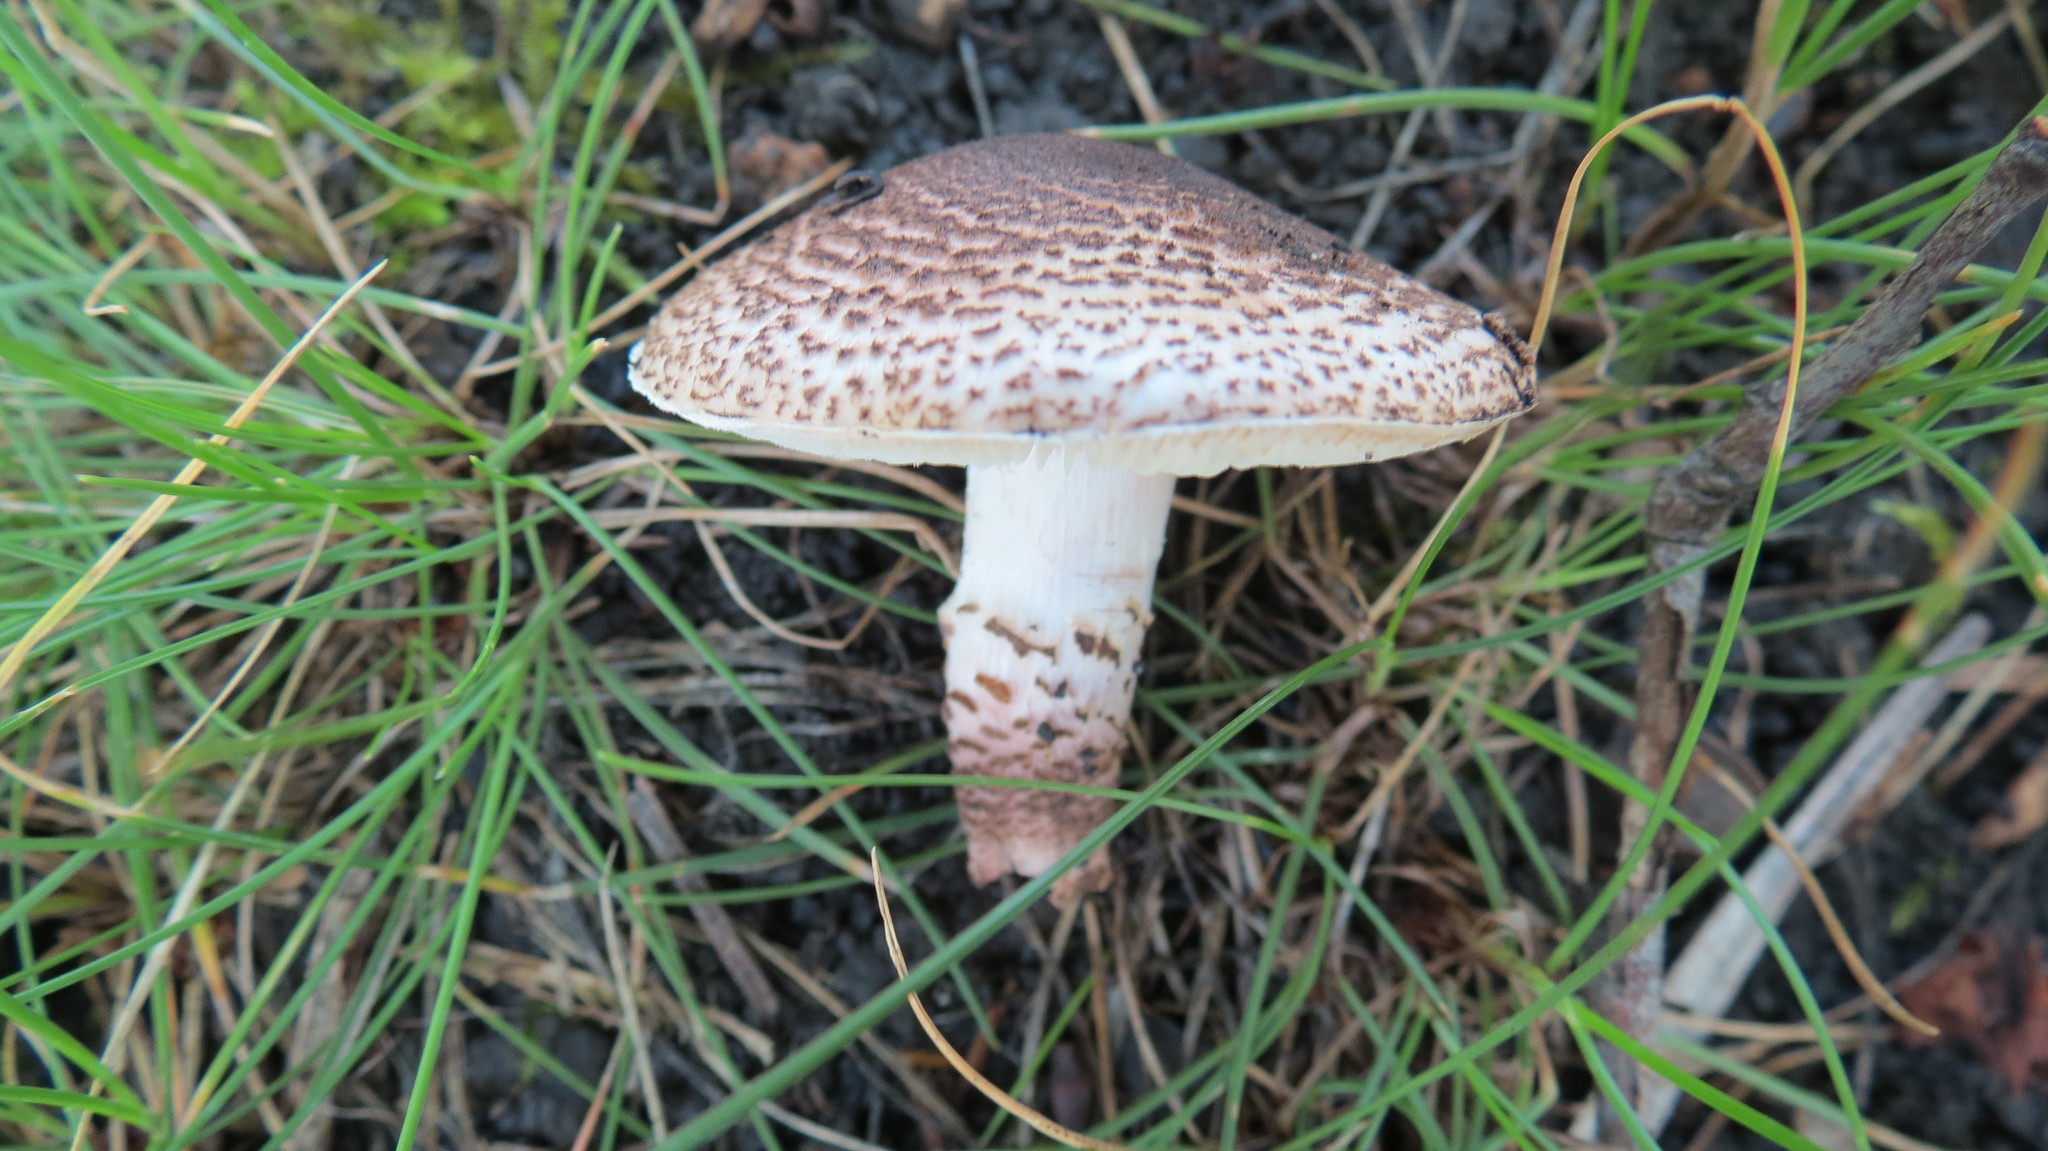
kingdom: Fungi
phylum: Basidiomycota
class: Agaricomycetes
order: Agaricales
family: Agaricaceae
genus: Lepiota
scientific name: Lepiota brunneoincarnata
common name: Deadly dapperling
